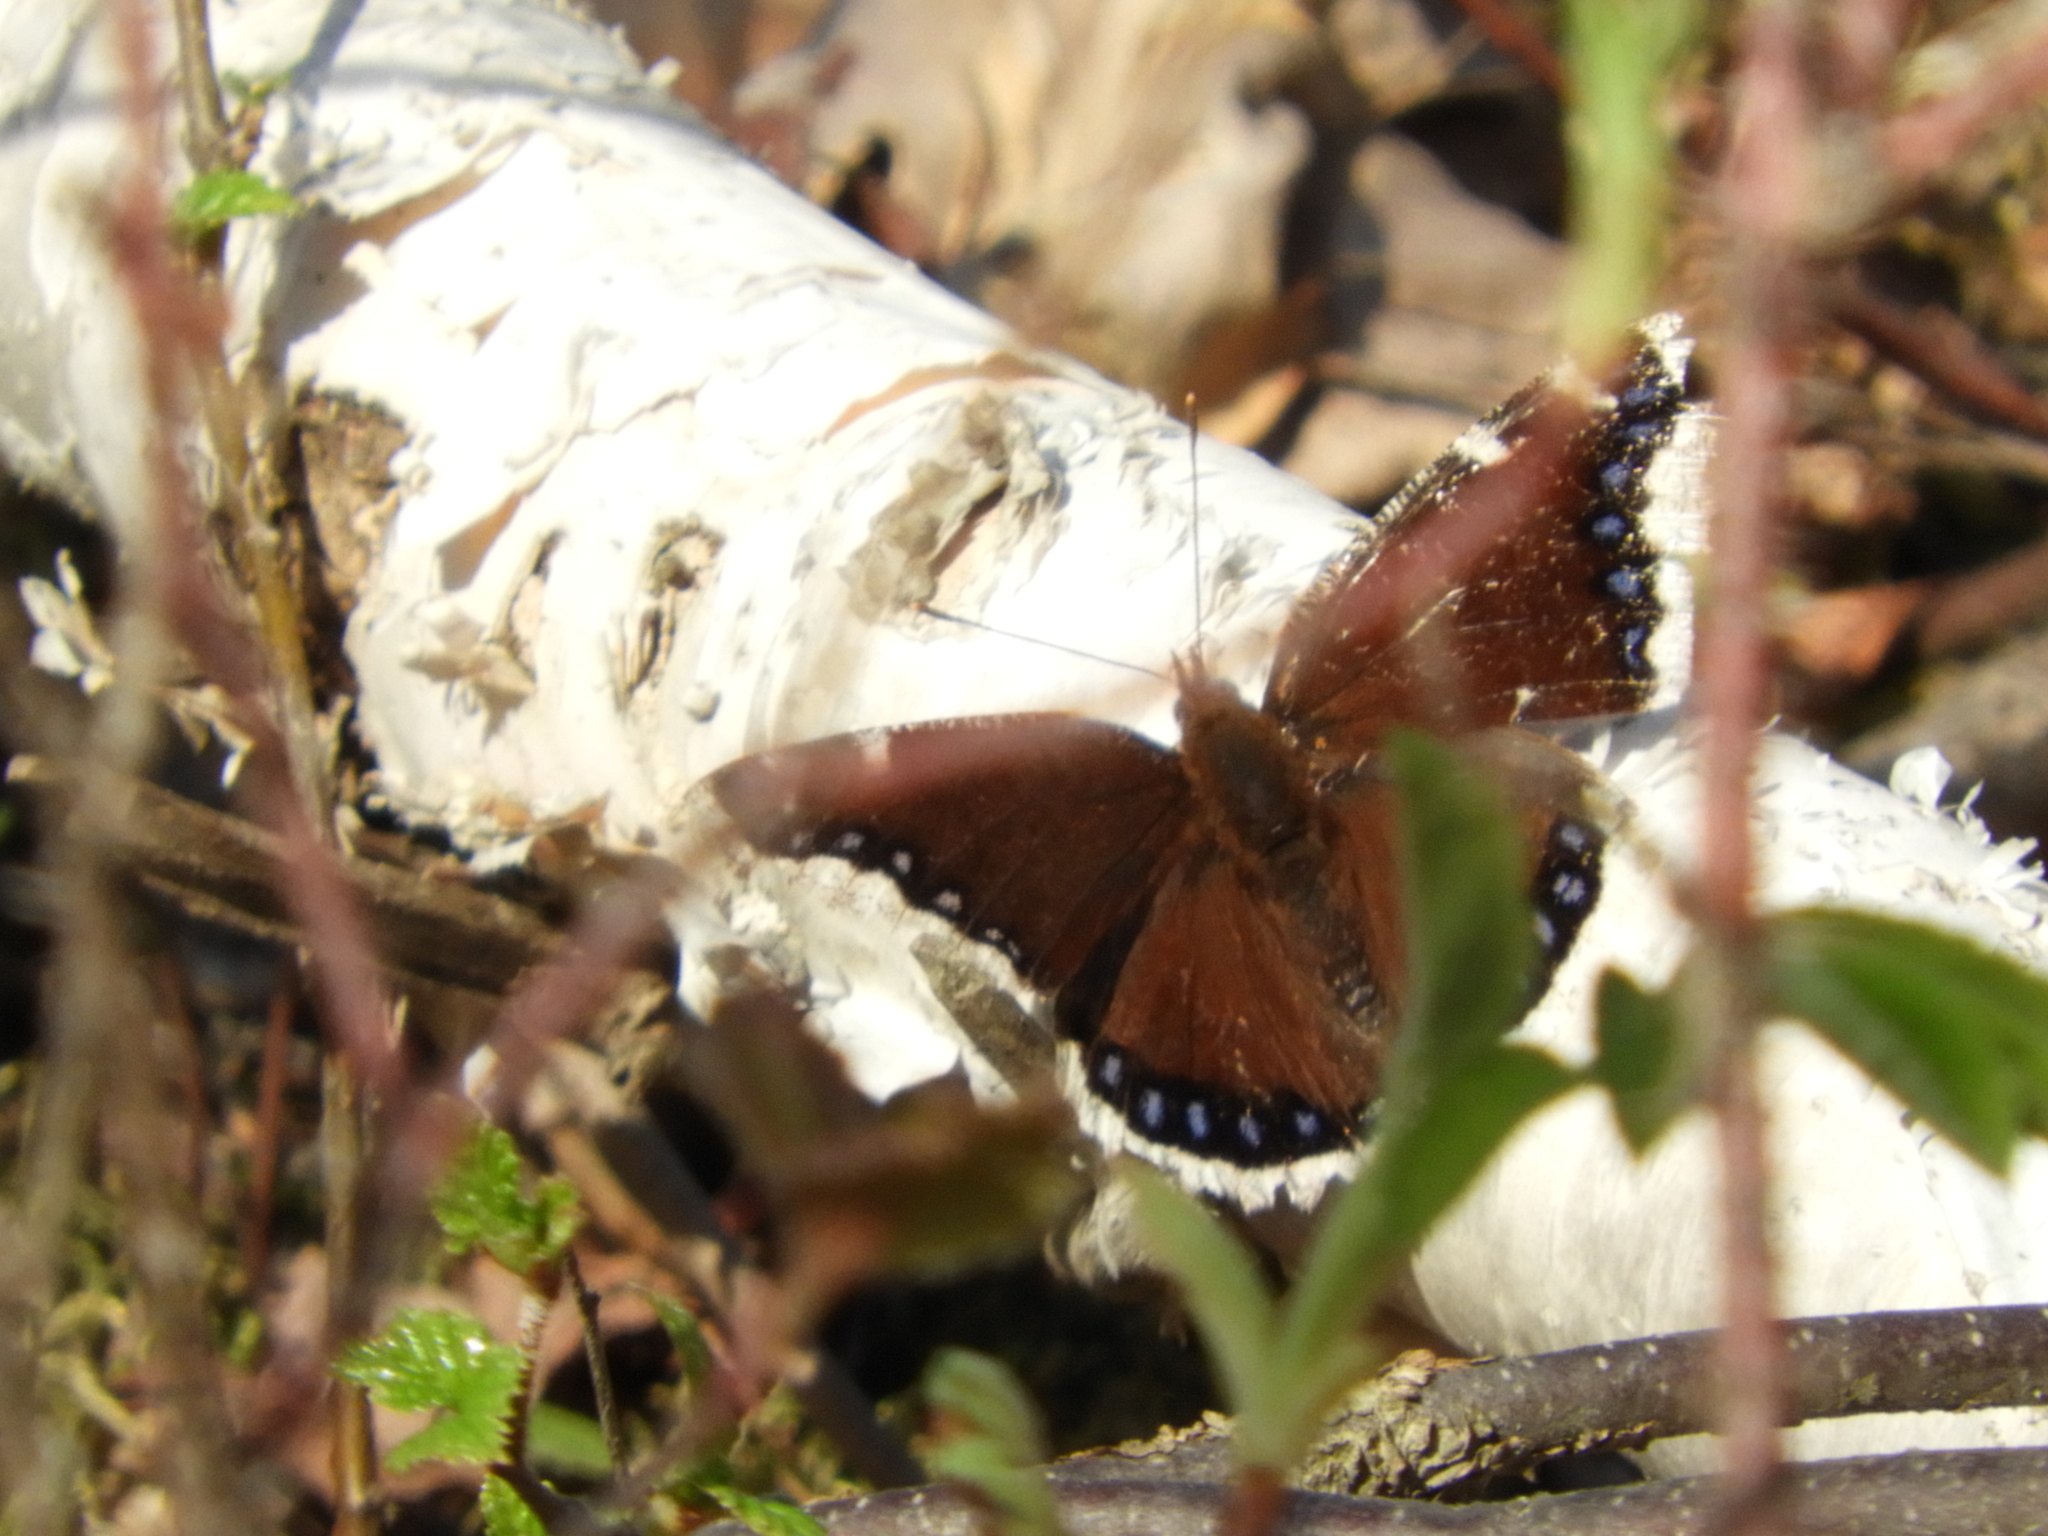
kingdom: Animalia
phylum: Arthropoda
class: Insecta
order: Lepidoptera
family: Nymphalidae
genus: Nymphalis
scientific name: Nymphalis antiopa
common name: Camberwell beauty
